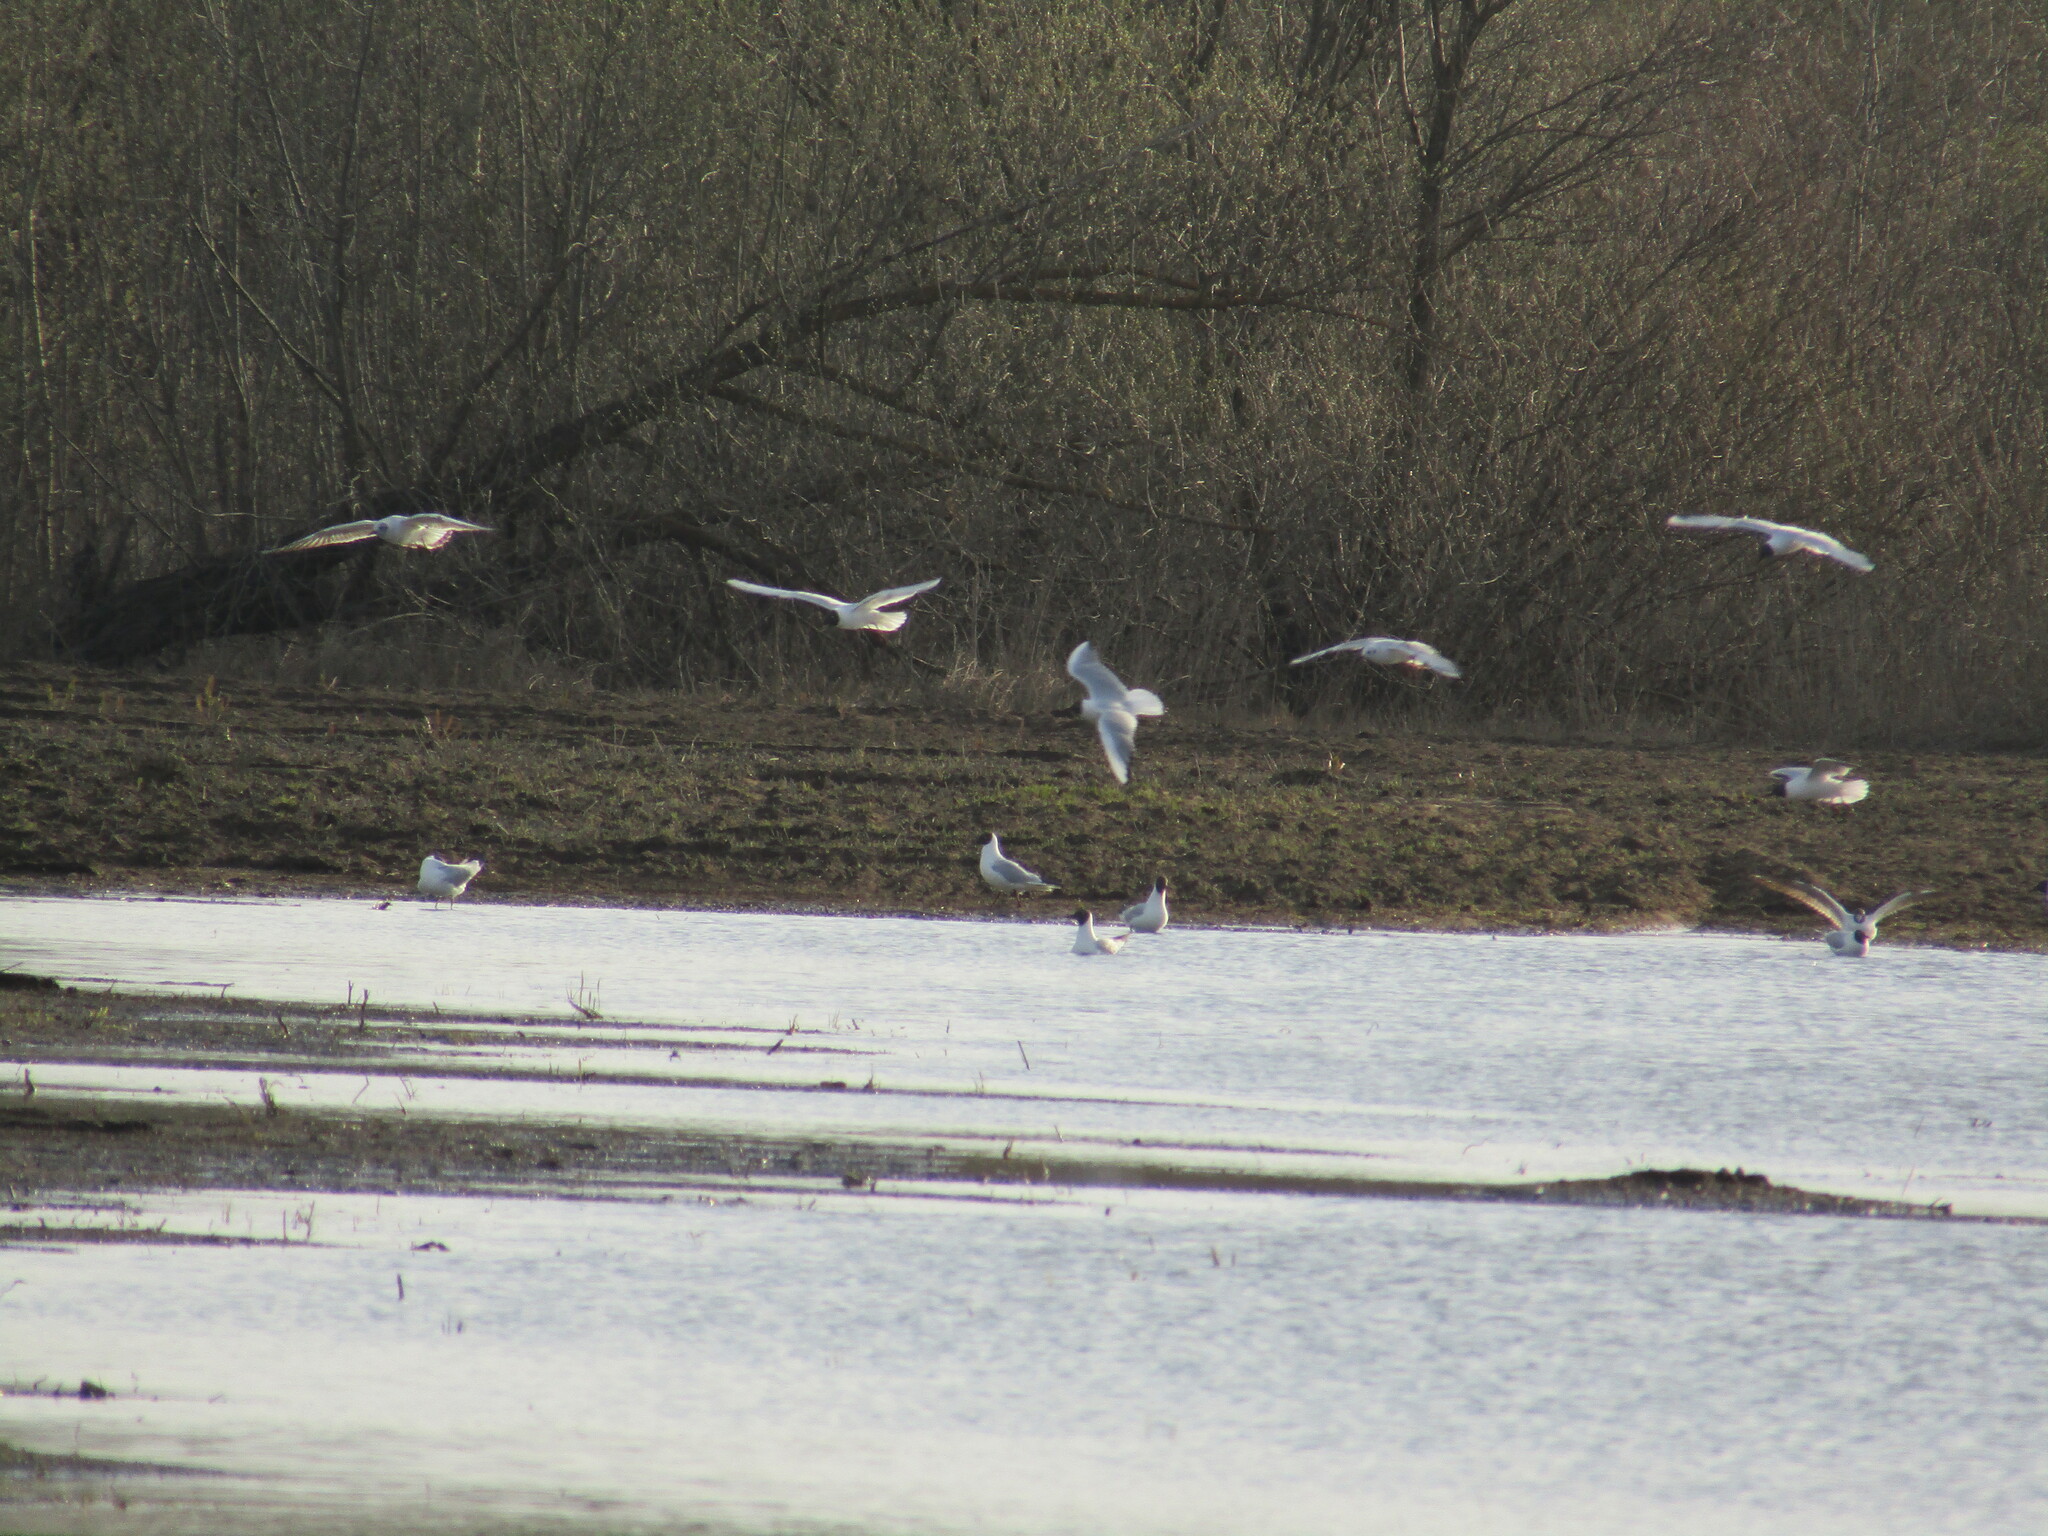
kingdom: Animalia
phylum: Chordata
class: Aves
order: Charadriiformes
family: Laridae
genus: Chroicocephalus
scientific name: Chroicocephalus ridibundus
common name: Black-headed gull
